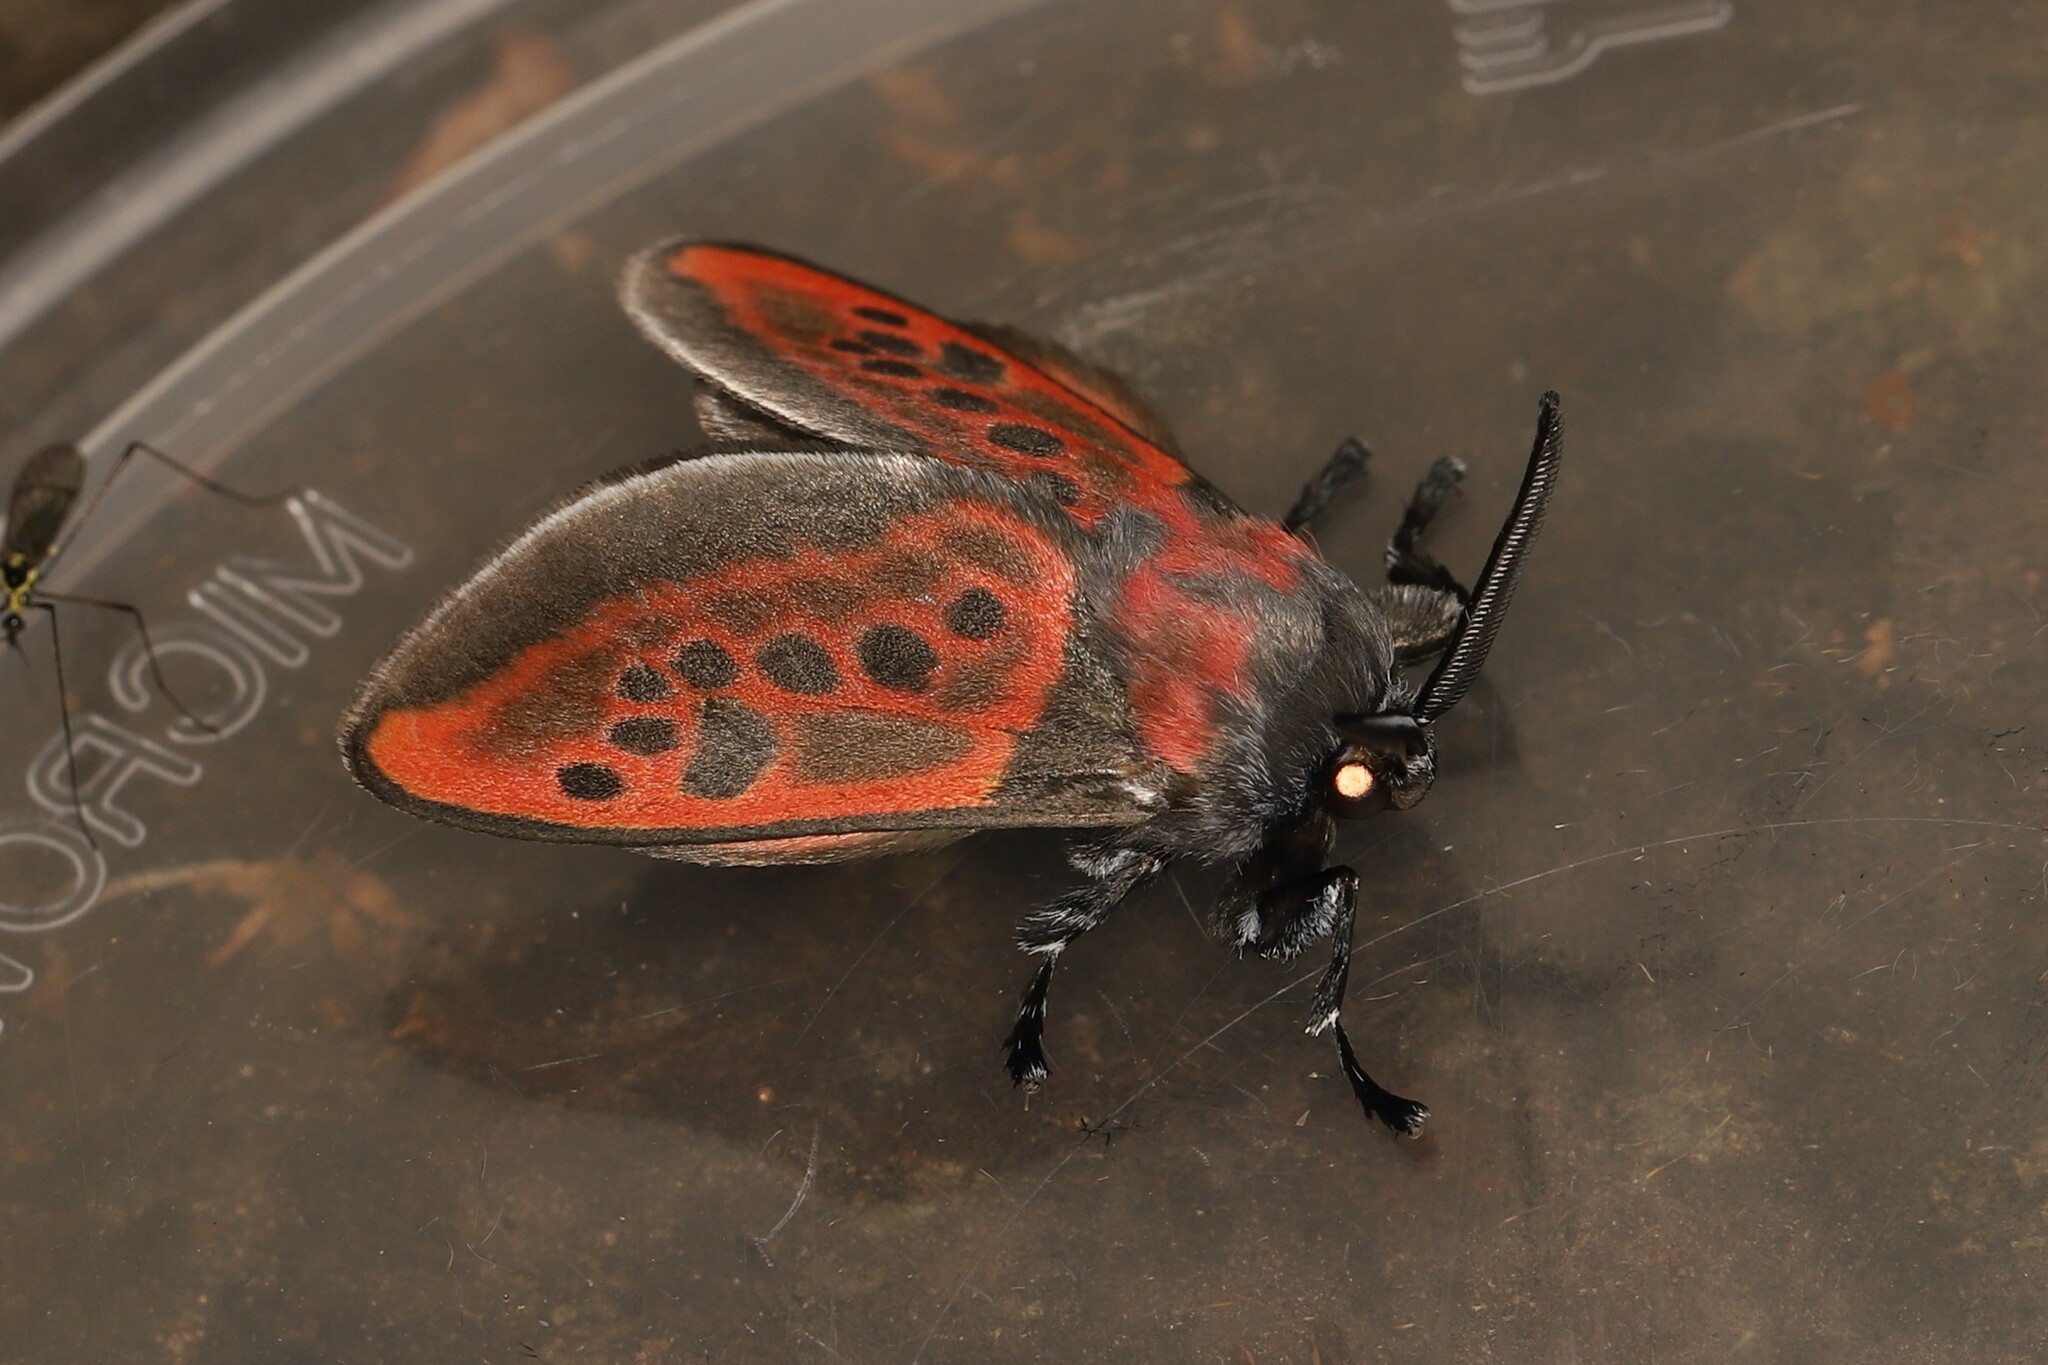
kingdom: Animalia
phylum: Arthropoda
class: Insecta
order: Lepidoptera
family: Megalopygidae
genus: Langucys
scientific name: Langucys nigropuncta
